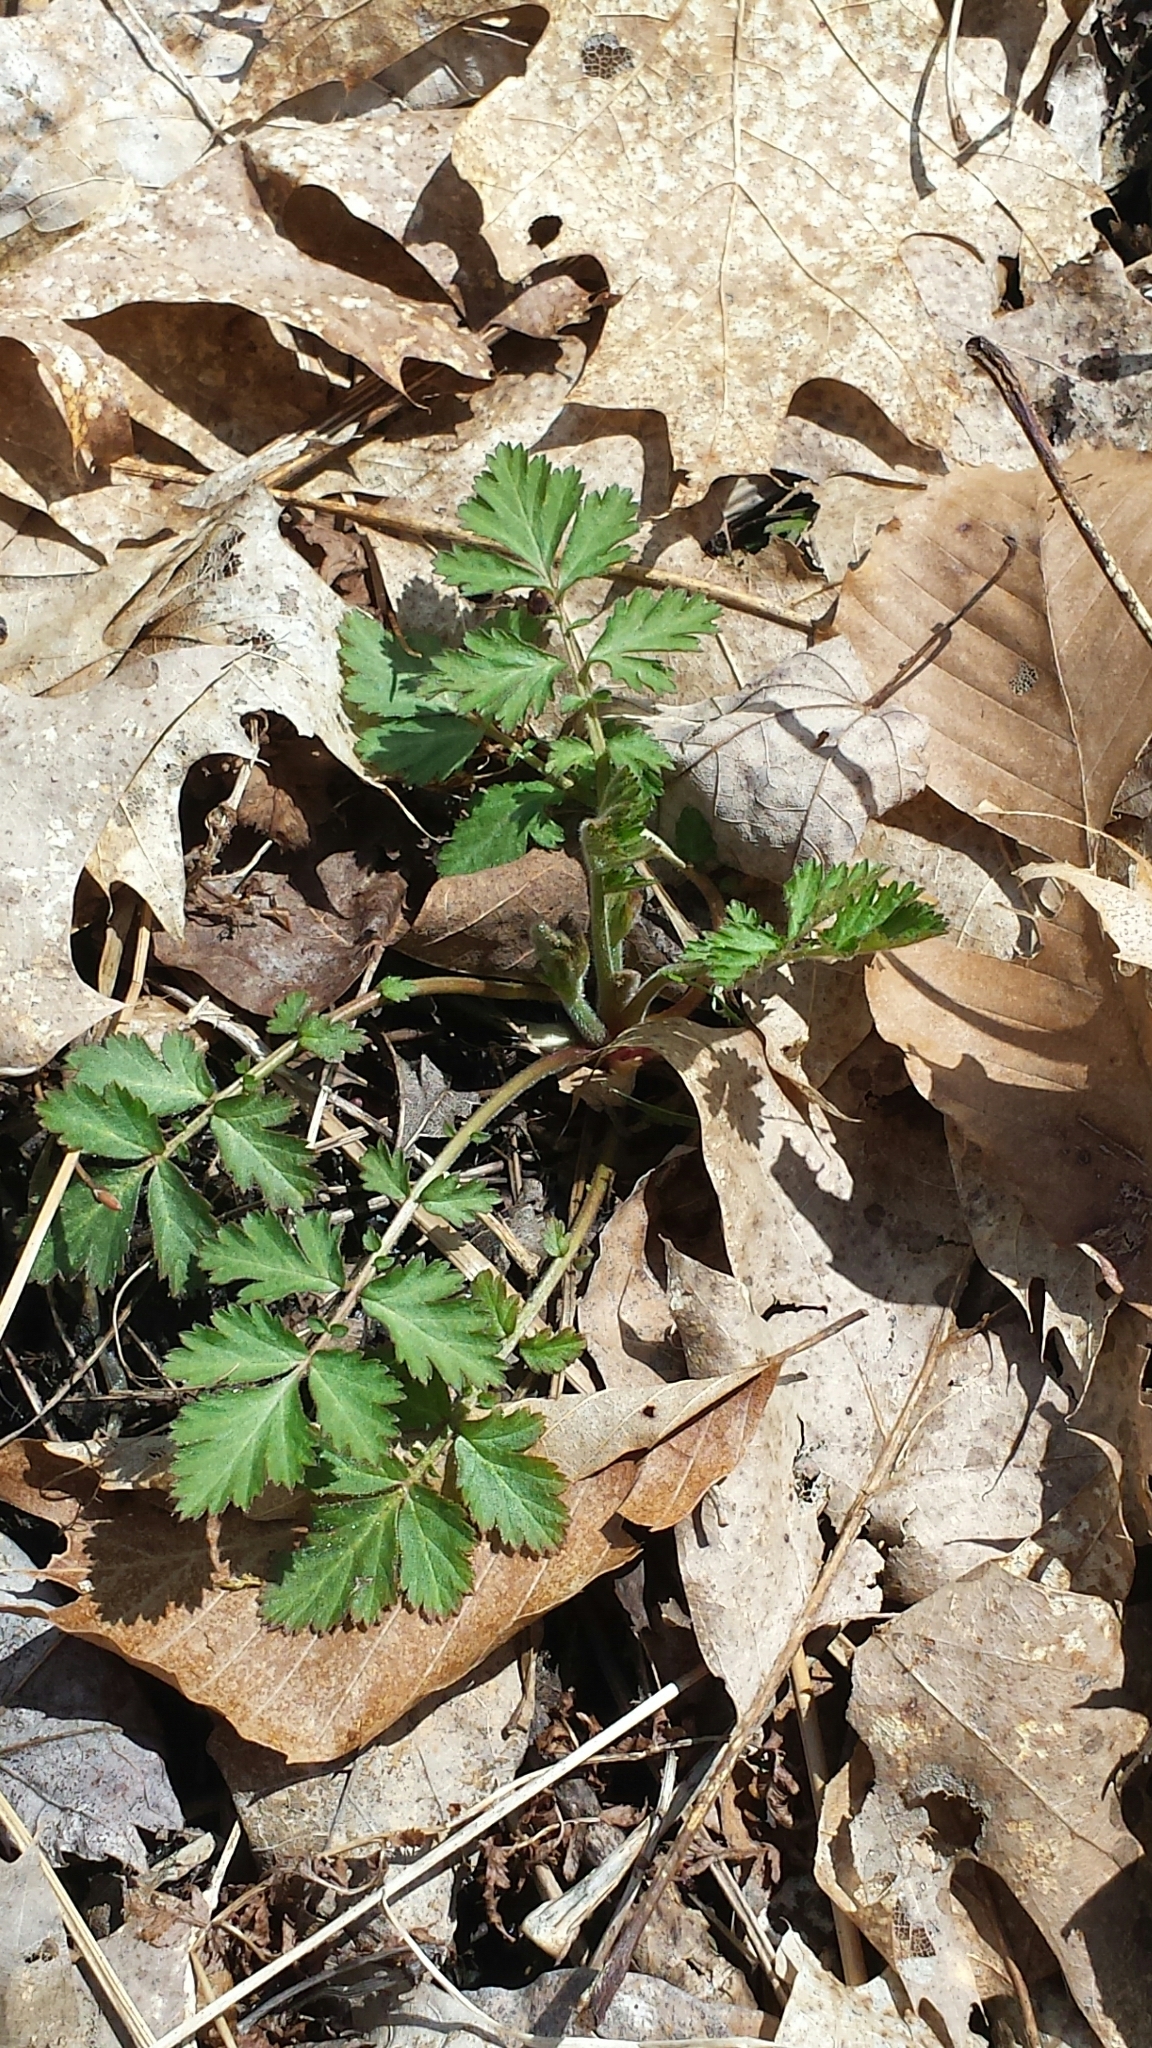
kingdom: Plantae
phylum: Tracheophyta
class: Magnoliopsida
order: Rosales
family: Rosaceae
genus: Geum
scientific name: Geum canadense
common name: White avens
